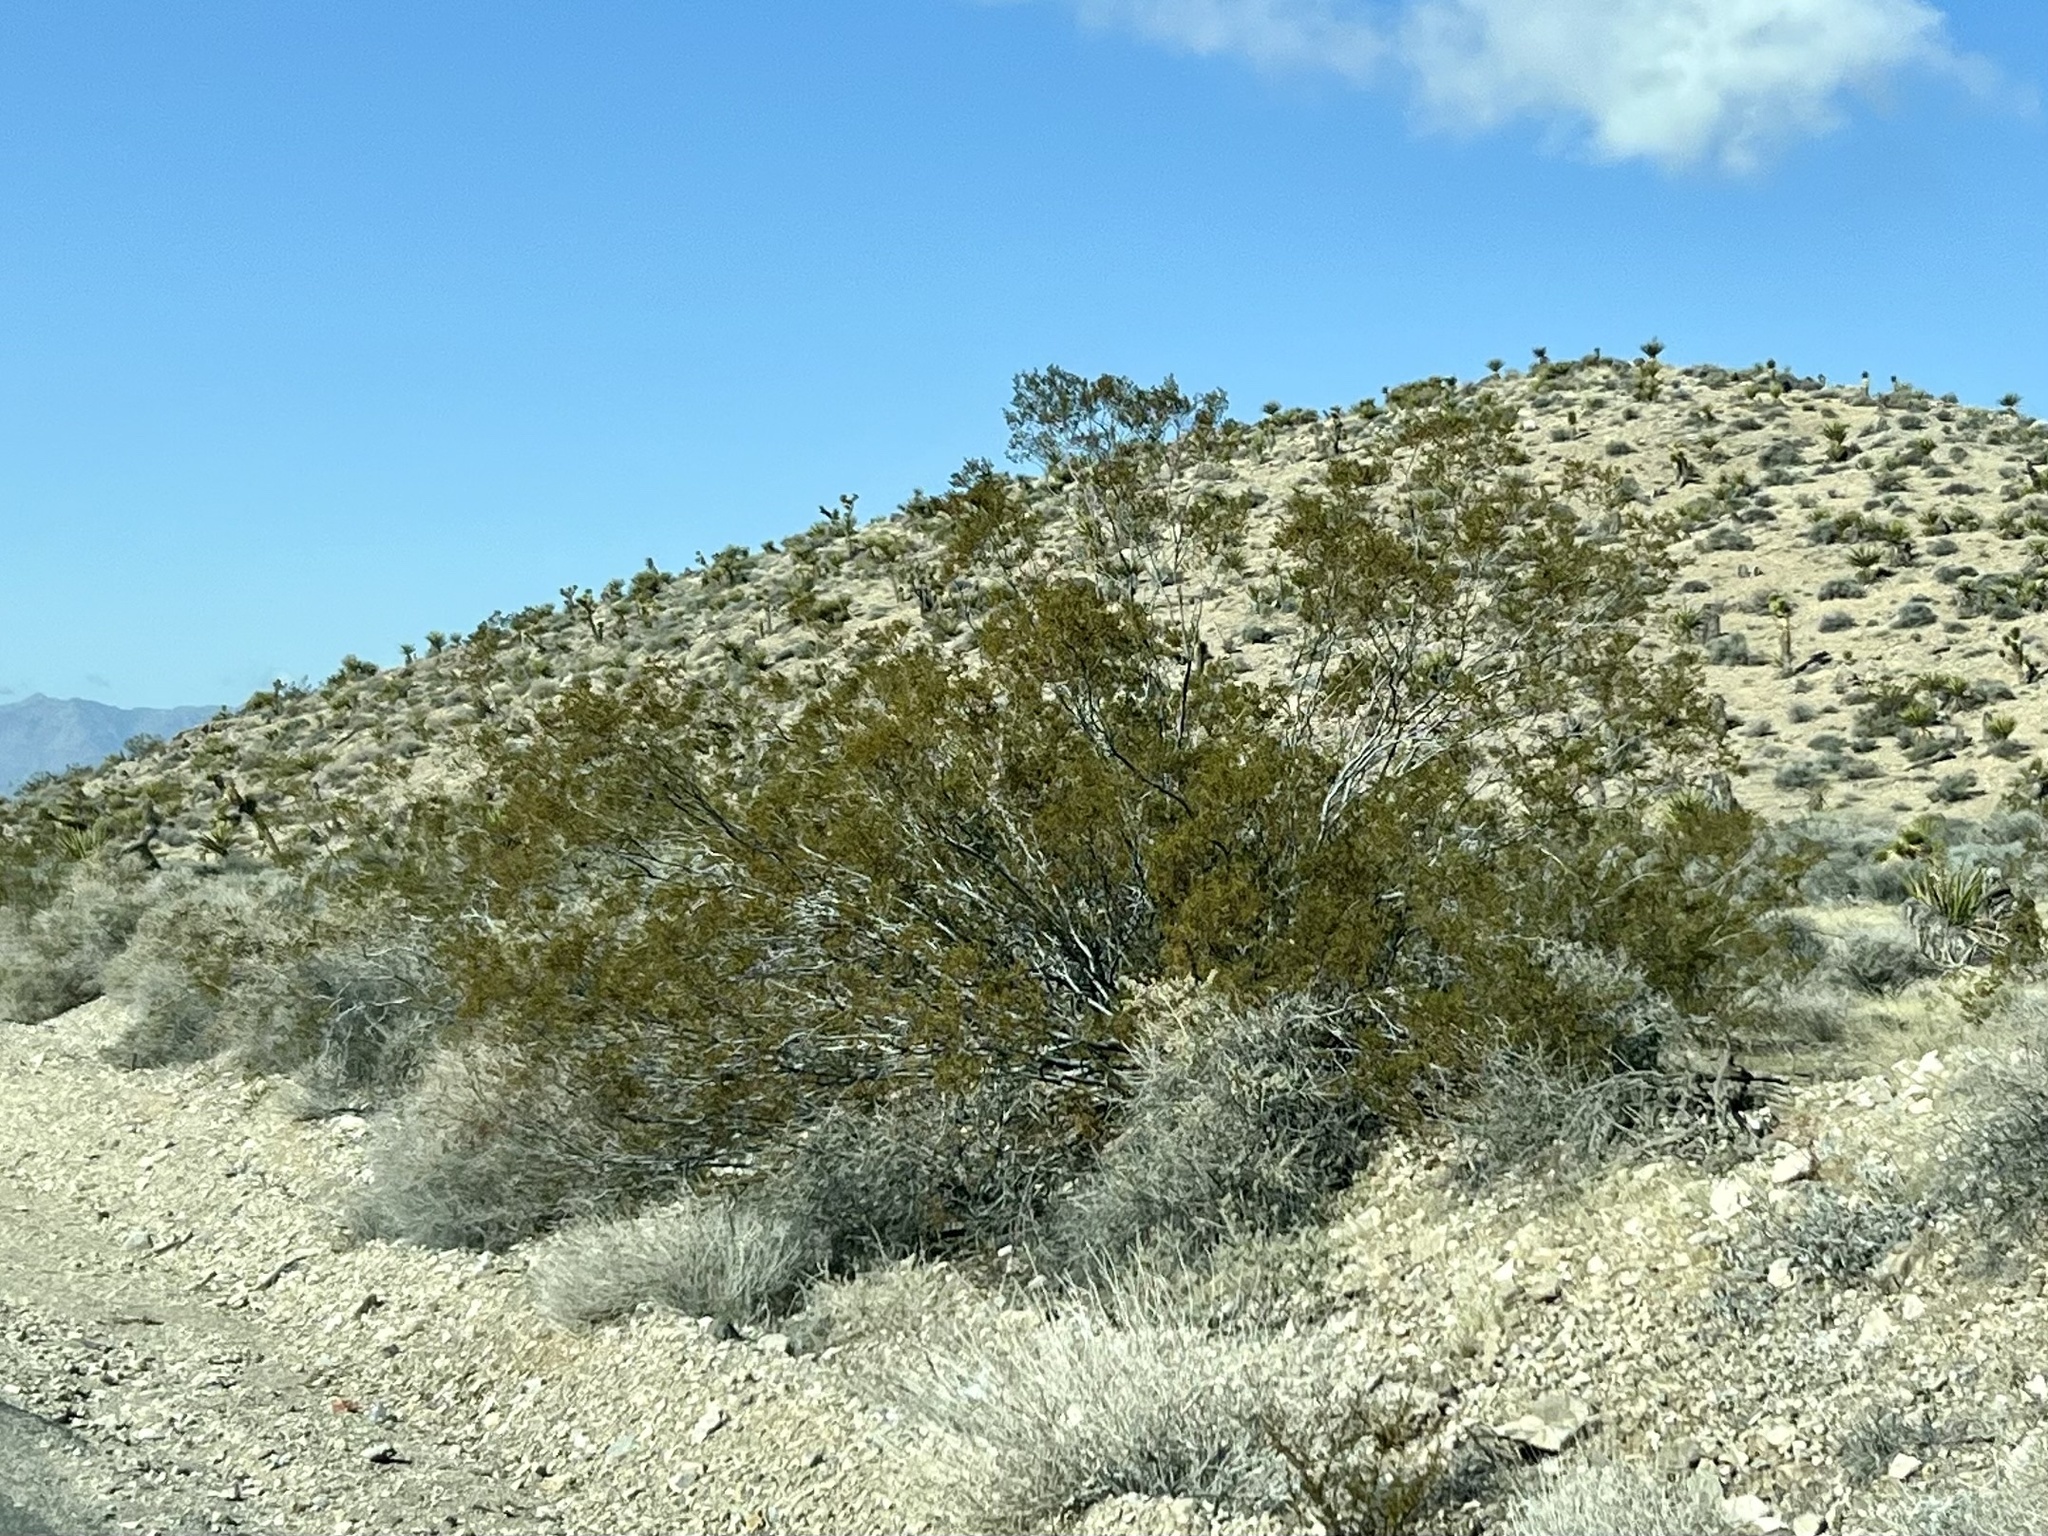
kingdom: Plantae
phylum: Tracheophyta
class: Magnoliopsida
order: Zygophyllales
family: Zygophyllaceae
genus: Larrea
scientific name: Larrea tridentata
